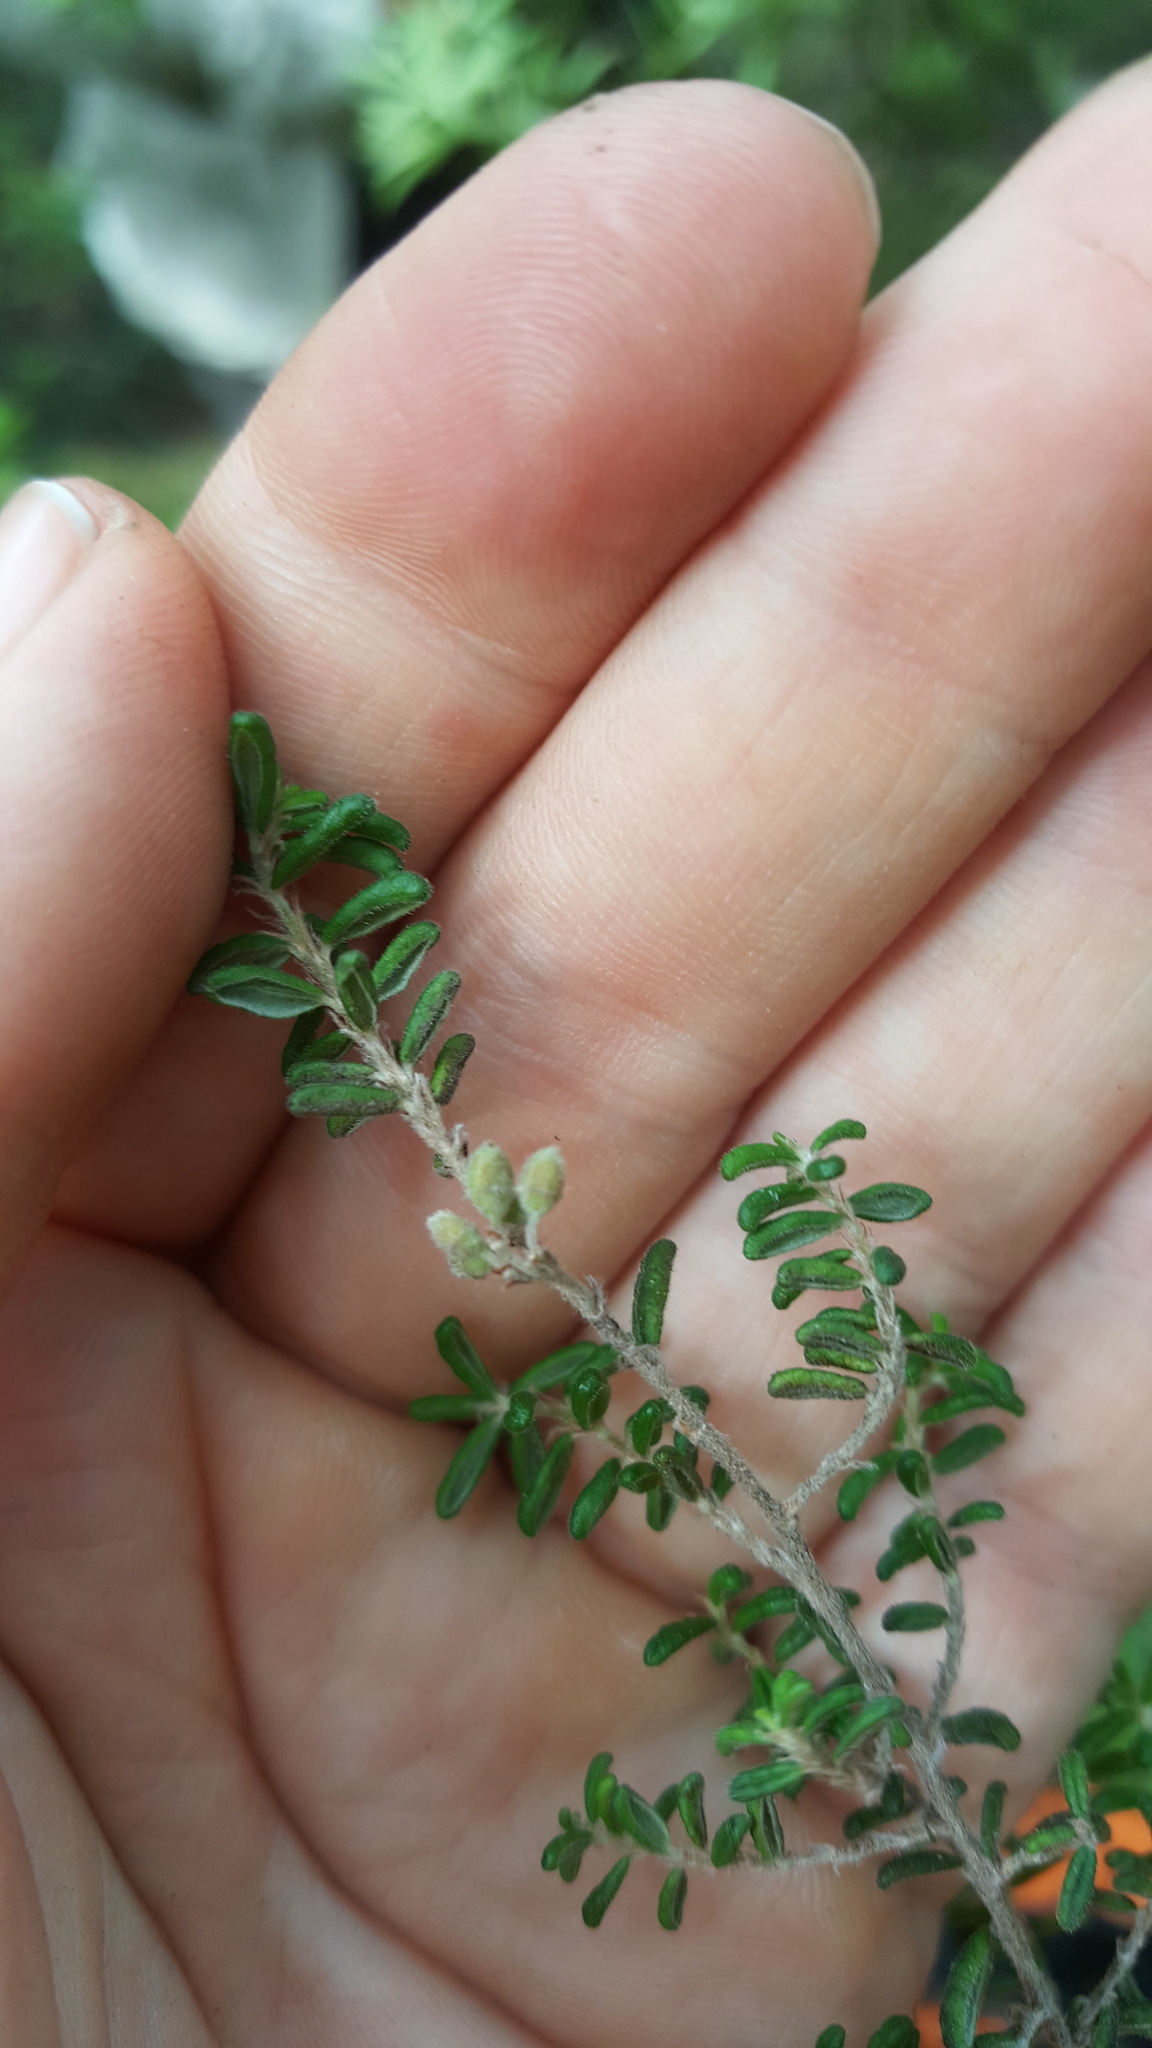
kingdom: Plantae
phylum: Tracheophyta
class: Magnoliopsida
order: Rosales
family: Rhamnaceae
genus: Pomaderris
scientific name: Pomaderris amoena
